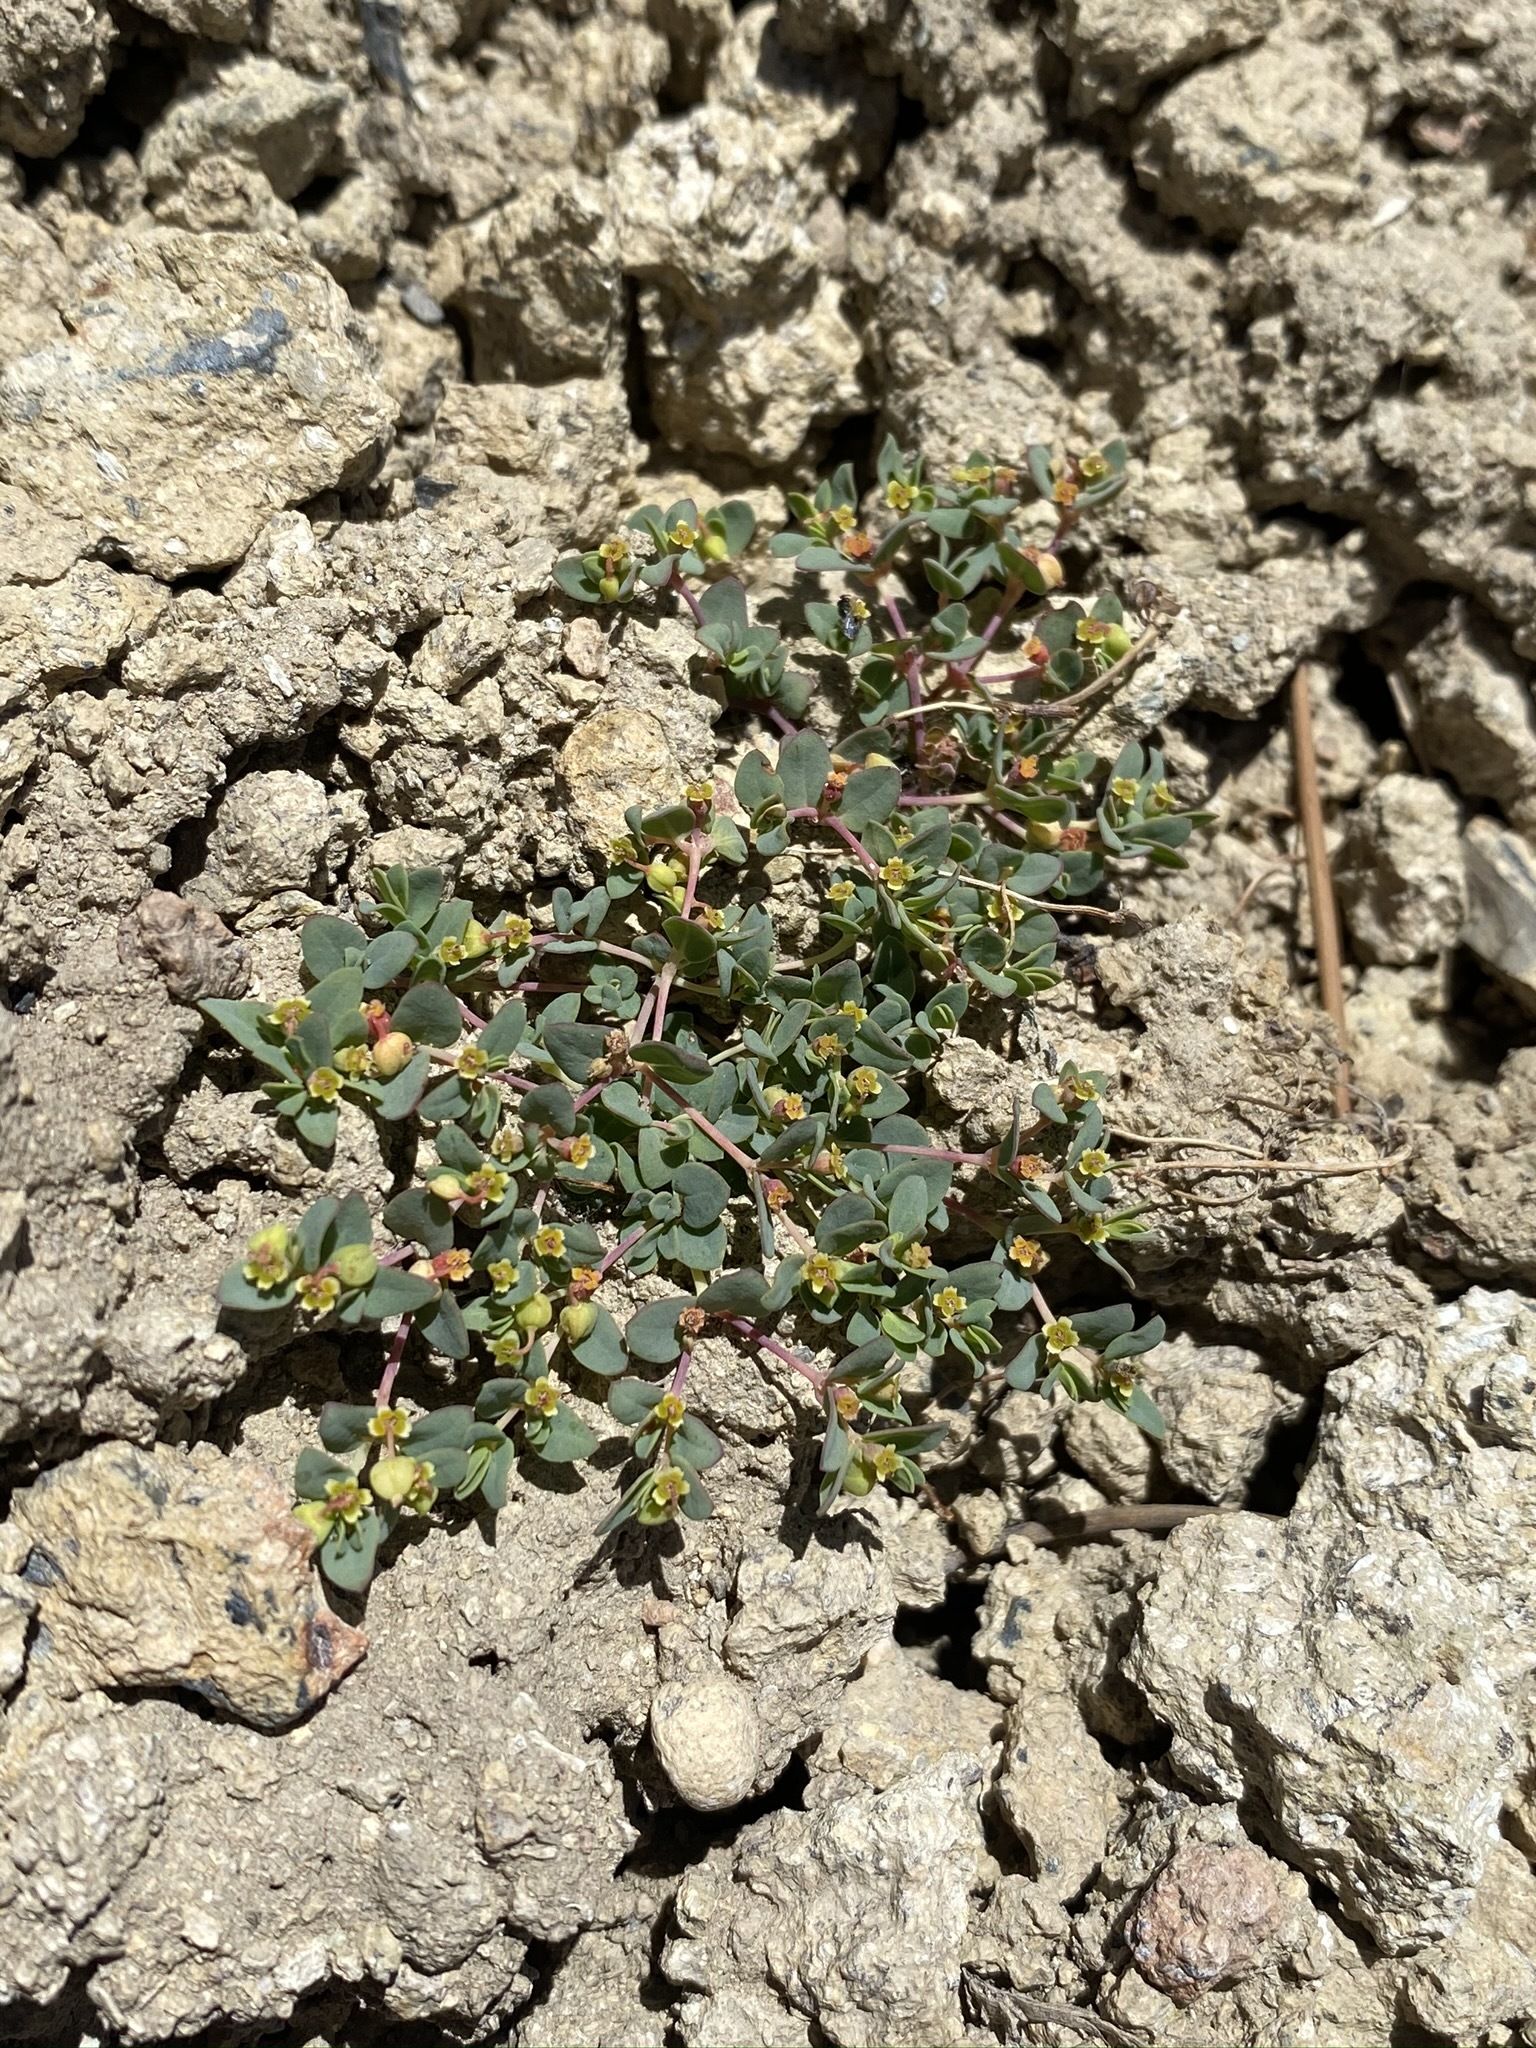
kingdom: Plantae
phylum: Tracheophyta
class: Magnoliopsida
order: Malpighiales
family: Euphorbiaceae
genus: Euphorbia
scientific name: Euphorbia fendleri
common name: Fendler's euphorbia
